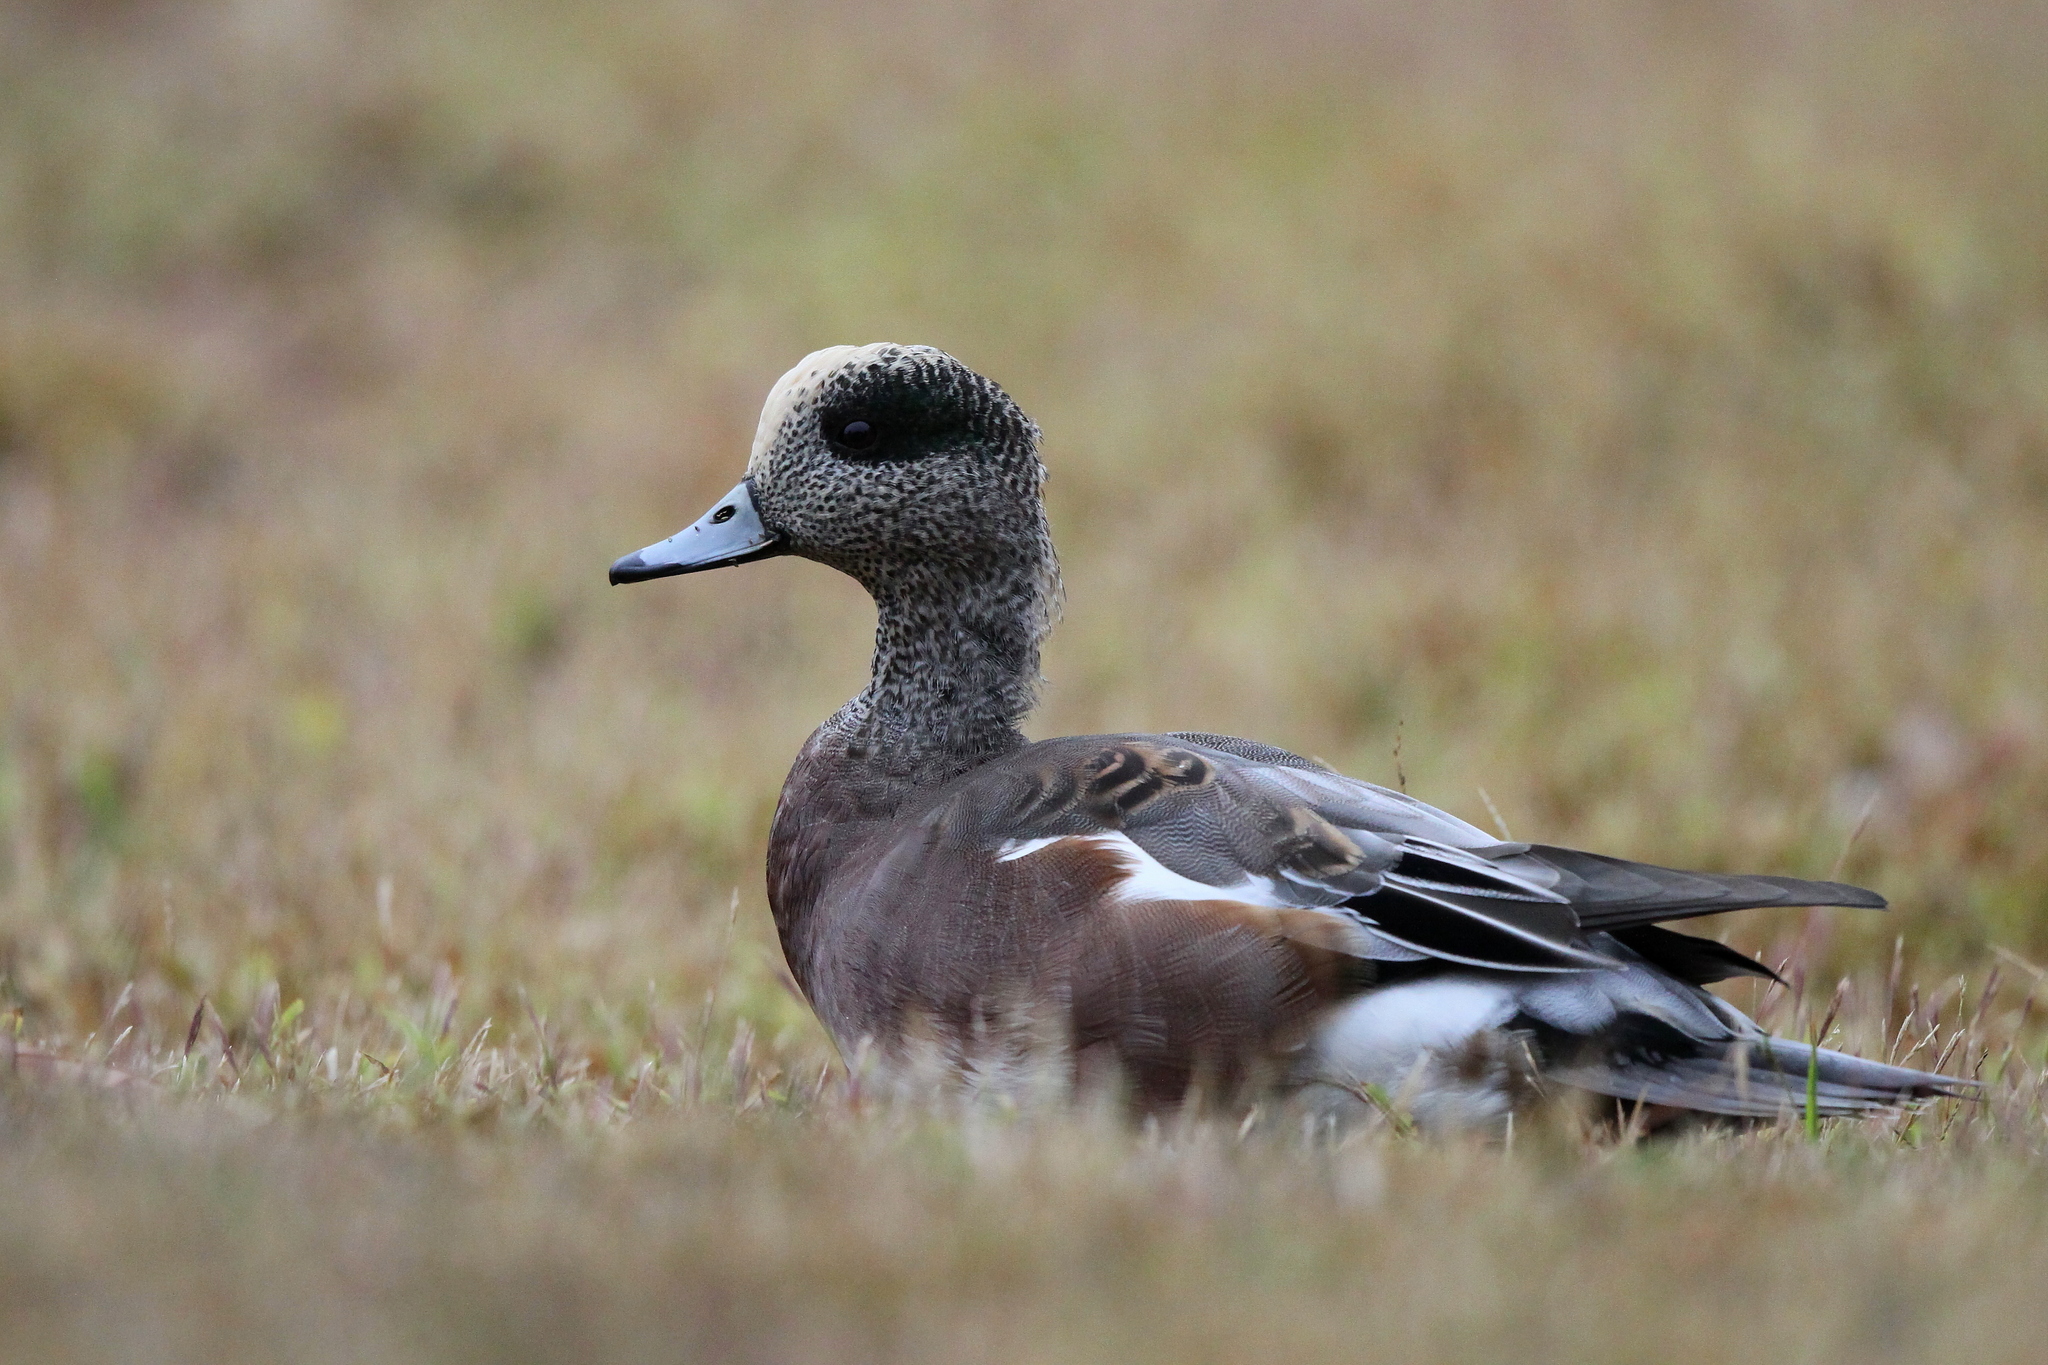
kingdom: Animalia
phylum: Chordata
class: Aves
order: Anseriformes
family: Anatidae
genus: Mareca
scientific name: Mareca americana
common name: American wigeon
